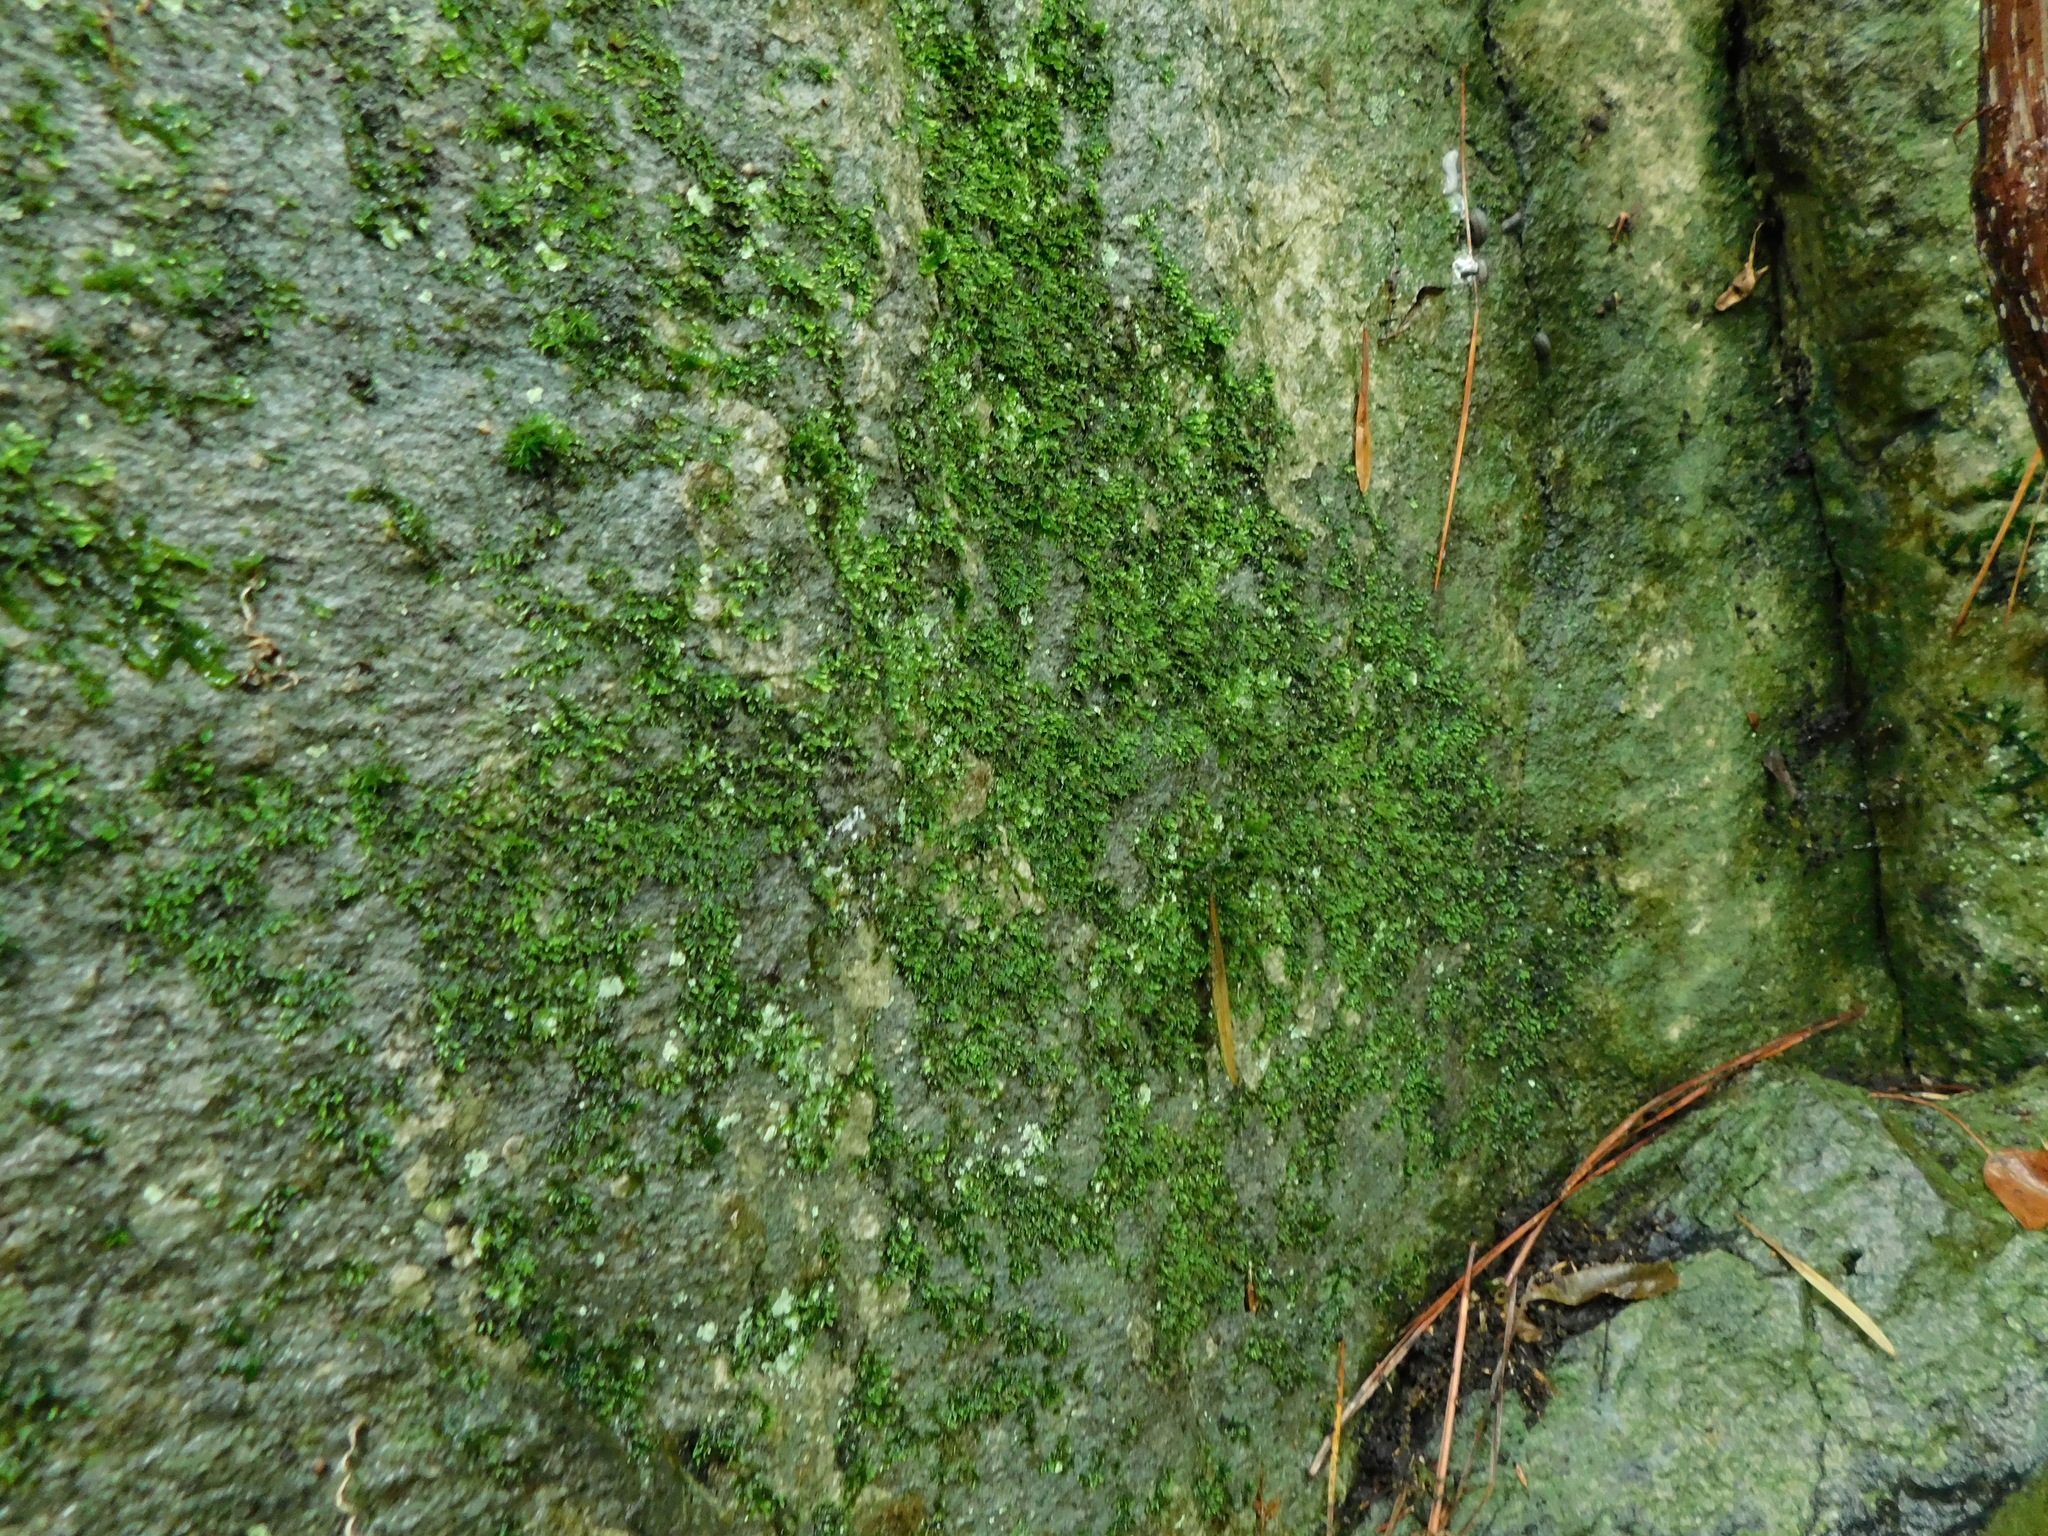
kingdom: Plantae
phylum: Bryophyta
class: Bryopsida
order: Hypnales
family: Sematophyllaceae
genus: Sematophyllum
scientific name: Sematophyllum demissum
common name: Prostrate feather-moss
